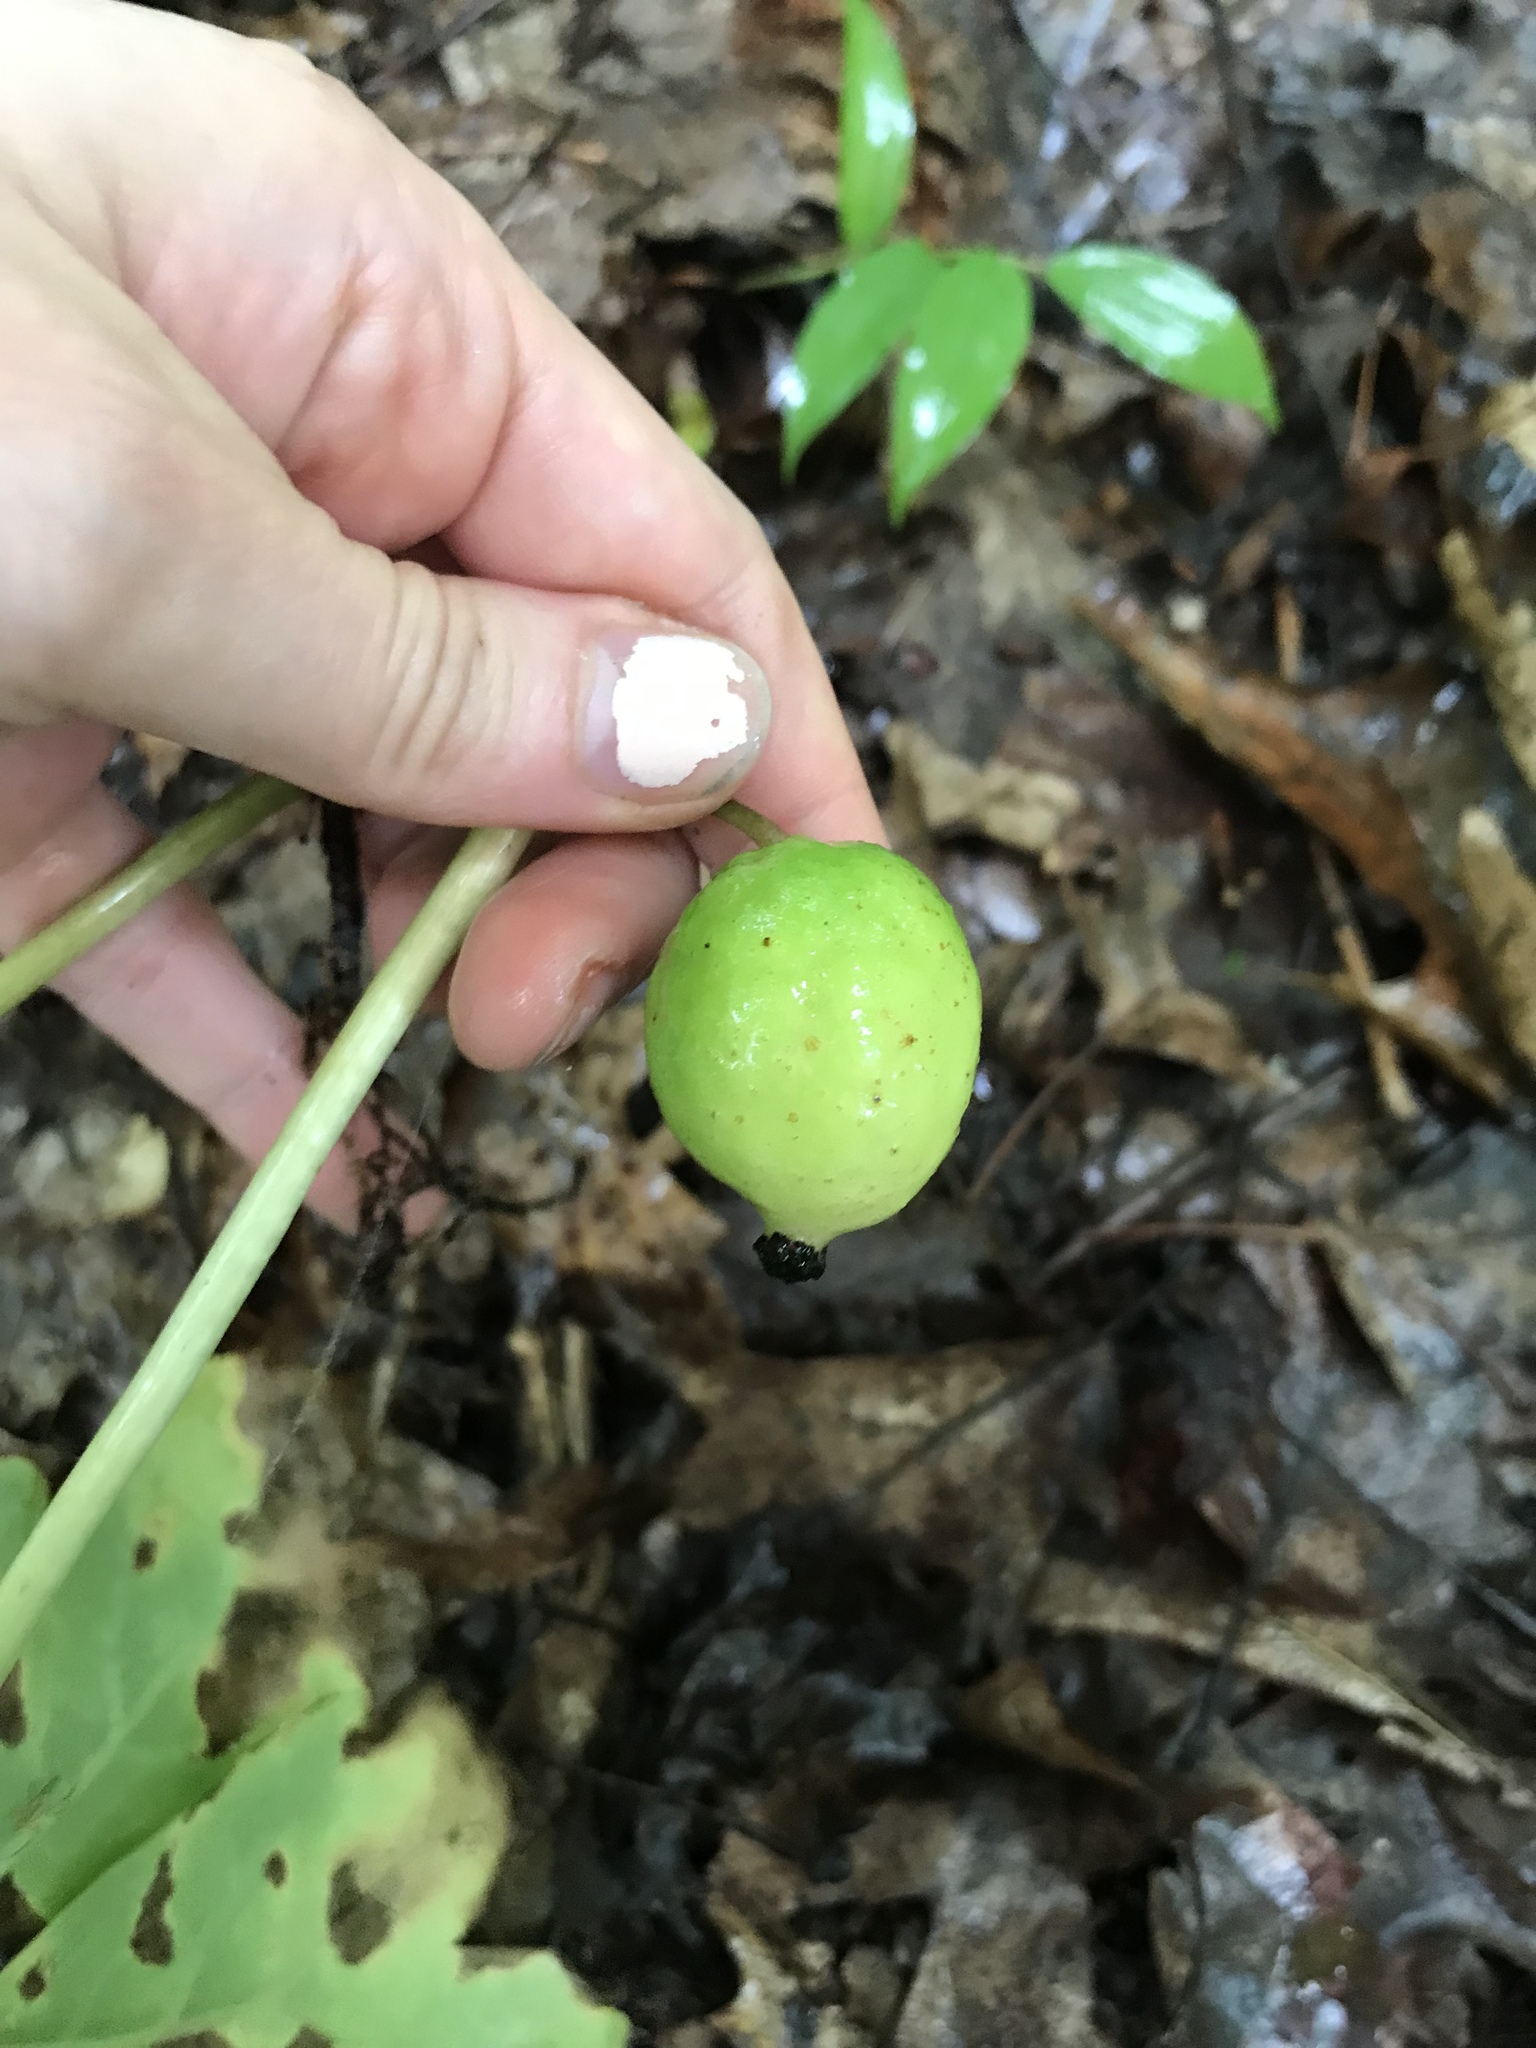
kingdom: Plantae
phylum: Tracheophyta
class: Magnoliopsida
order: Ranunculales
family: Berberidaceae
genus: Podophyllum
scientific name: Podophyllum peltatum
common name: Wild mandrake
